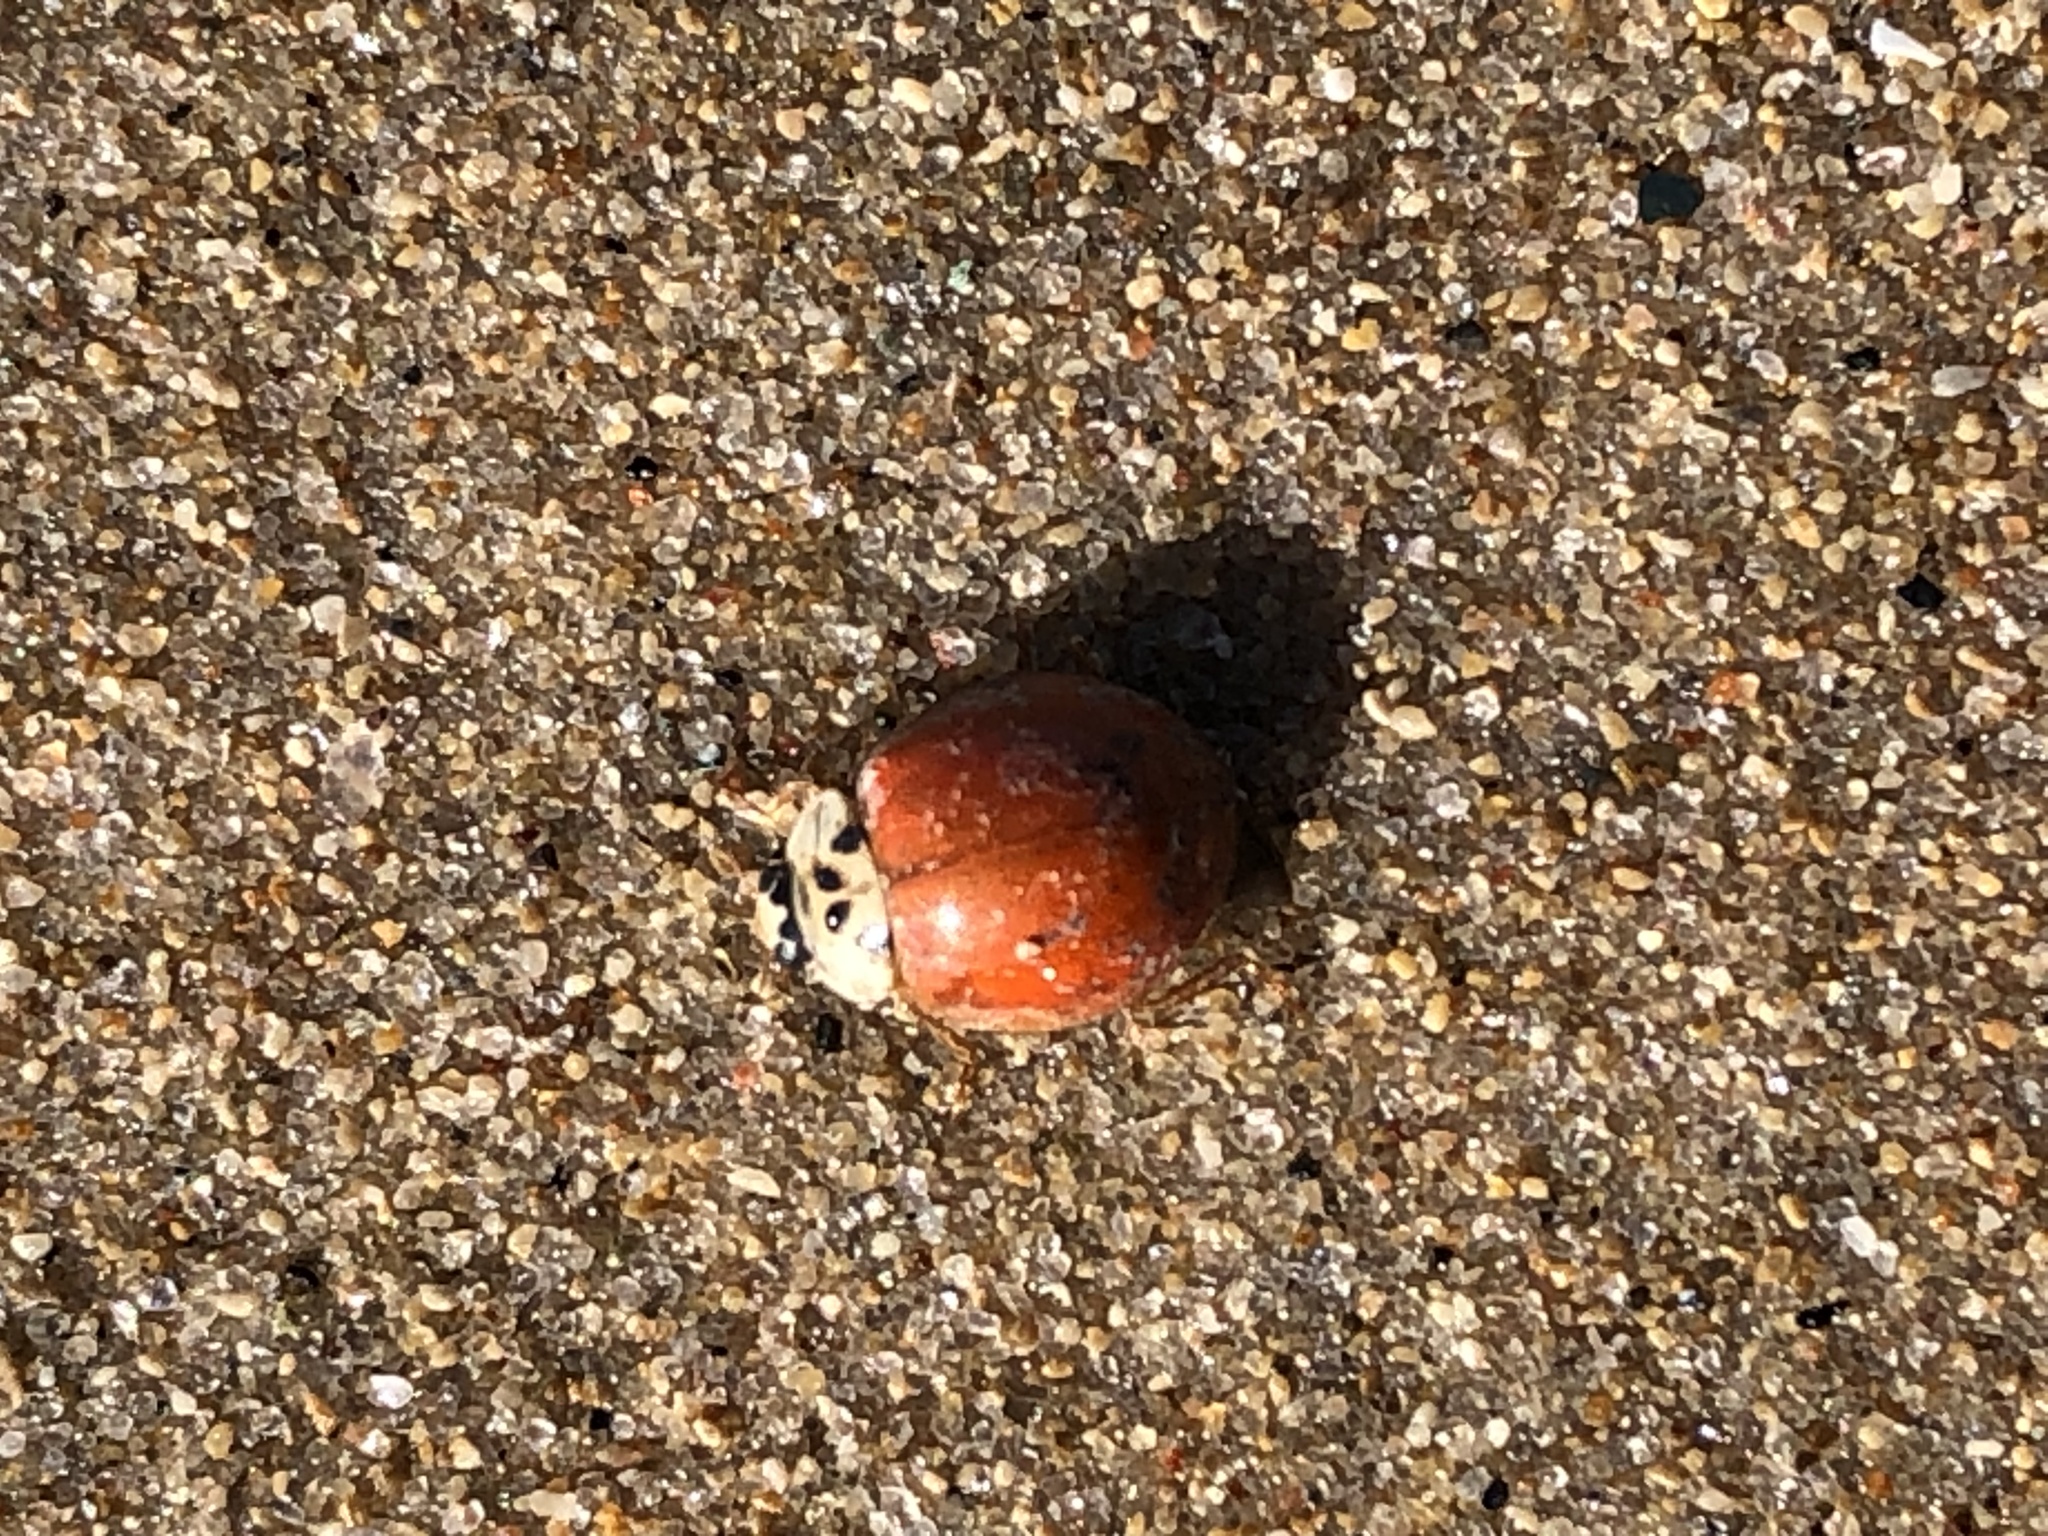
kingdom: Animalia
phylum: Arthropoda
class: Insecta
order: Coleoptera
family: Coccinellidae
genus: Harmonia
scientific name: Harmonia axyridis
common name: Harlequin ladybird
